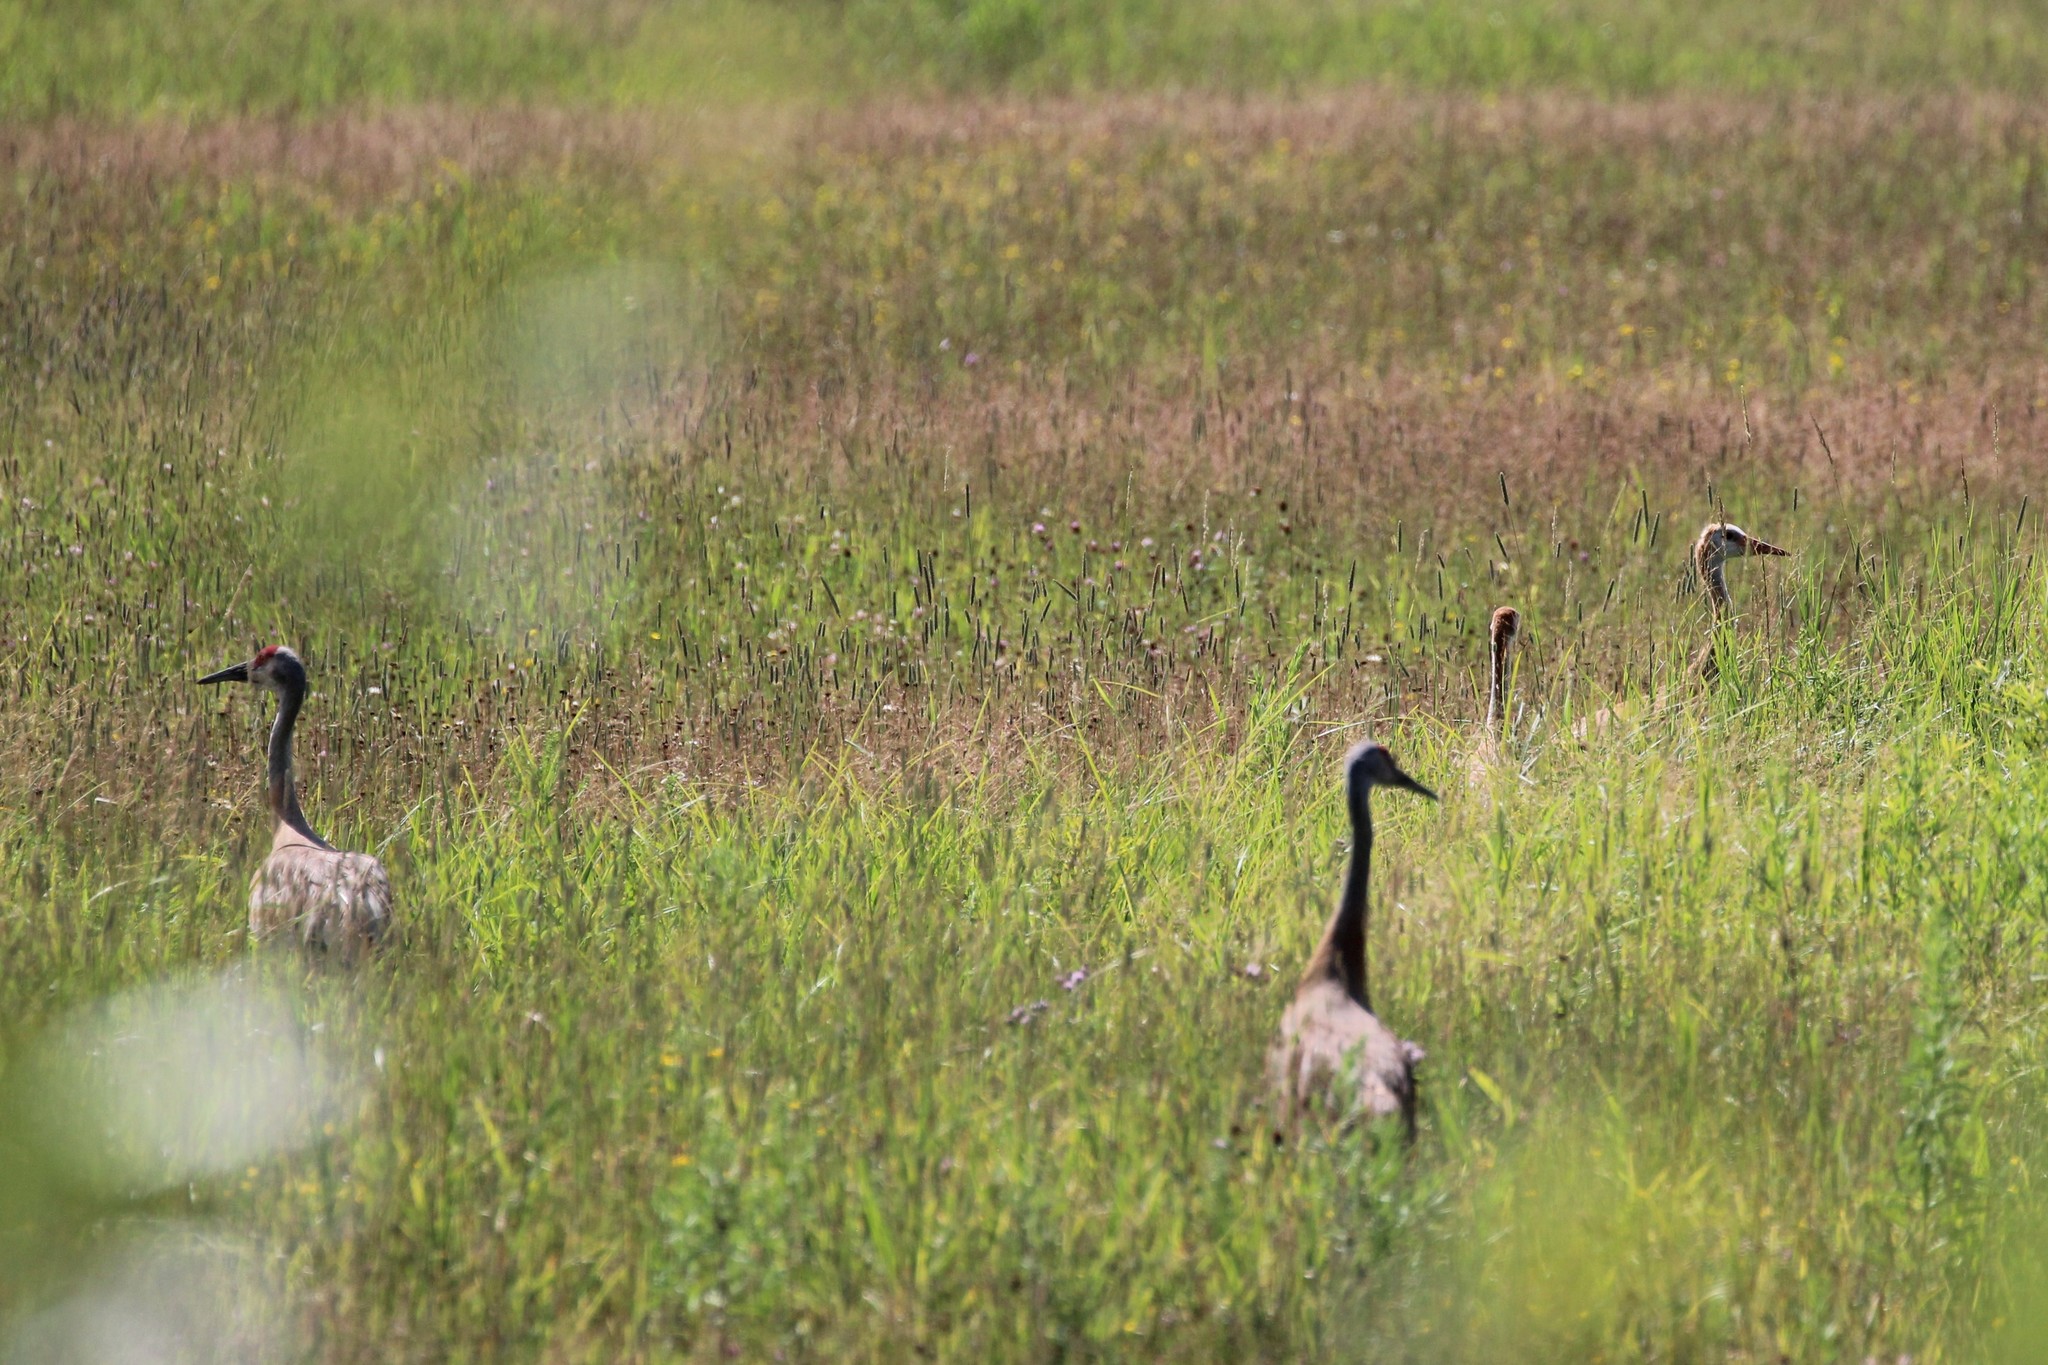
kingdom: Animalia
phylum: Chordata
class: Aves
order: Gruiformes
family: Gruidae
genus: Grus
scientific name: Grus canadensis
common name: Sandhill crane
